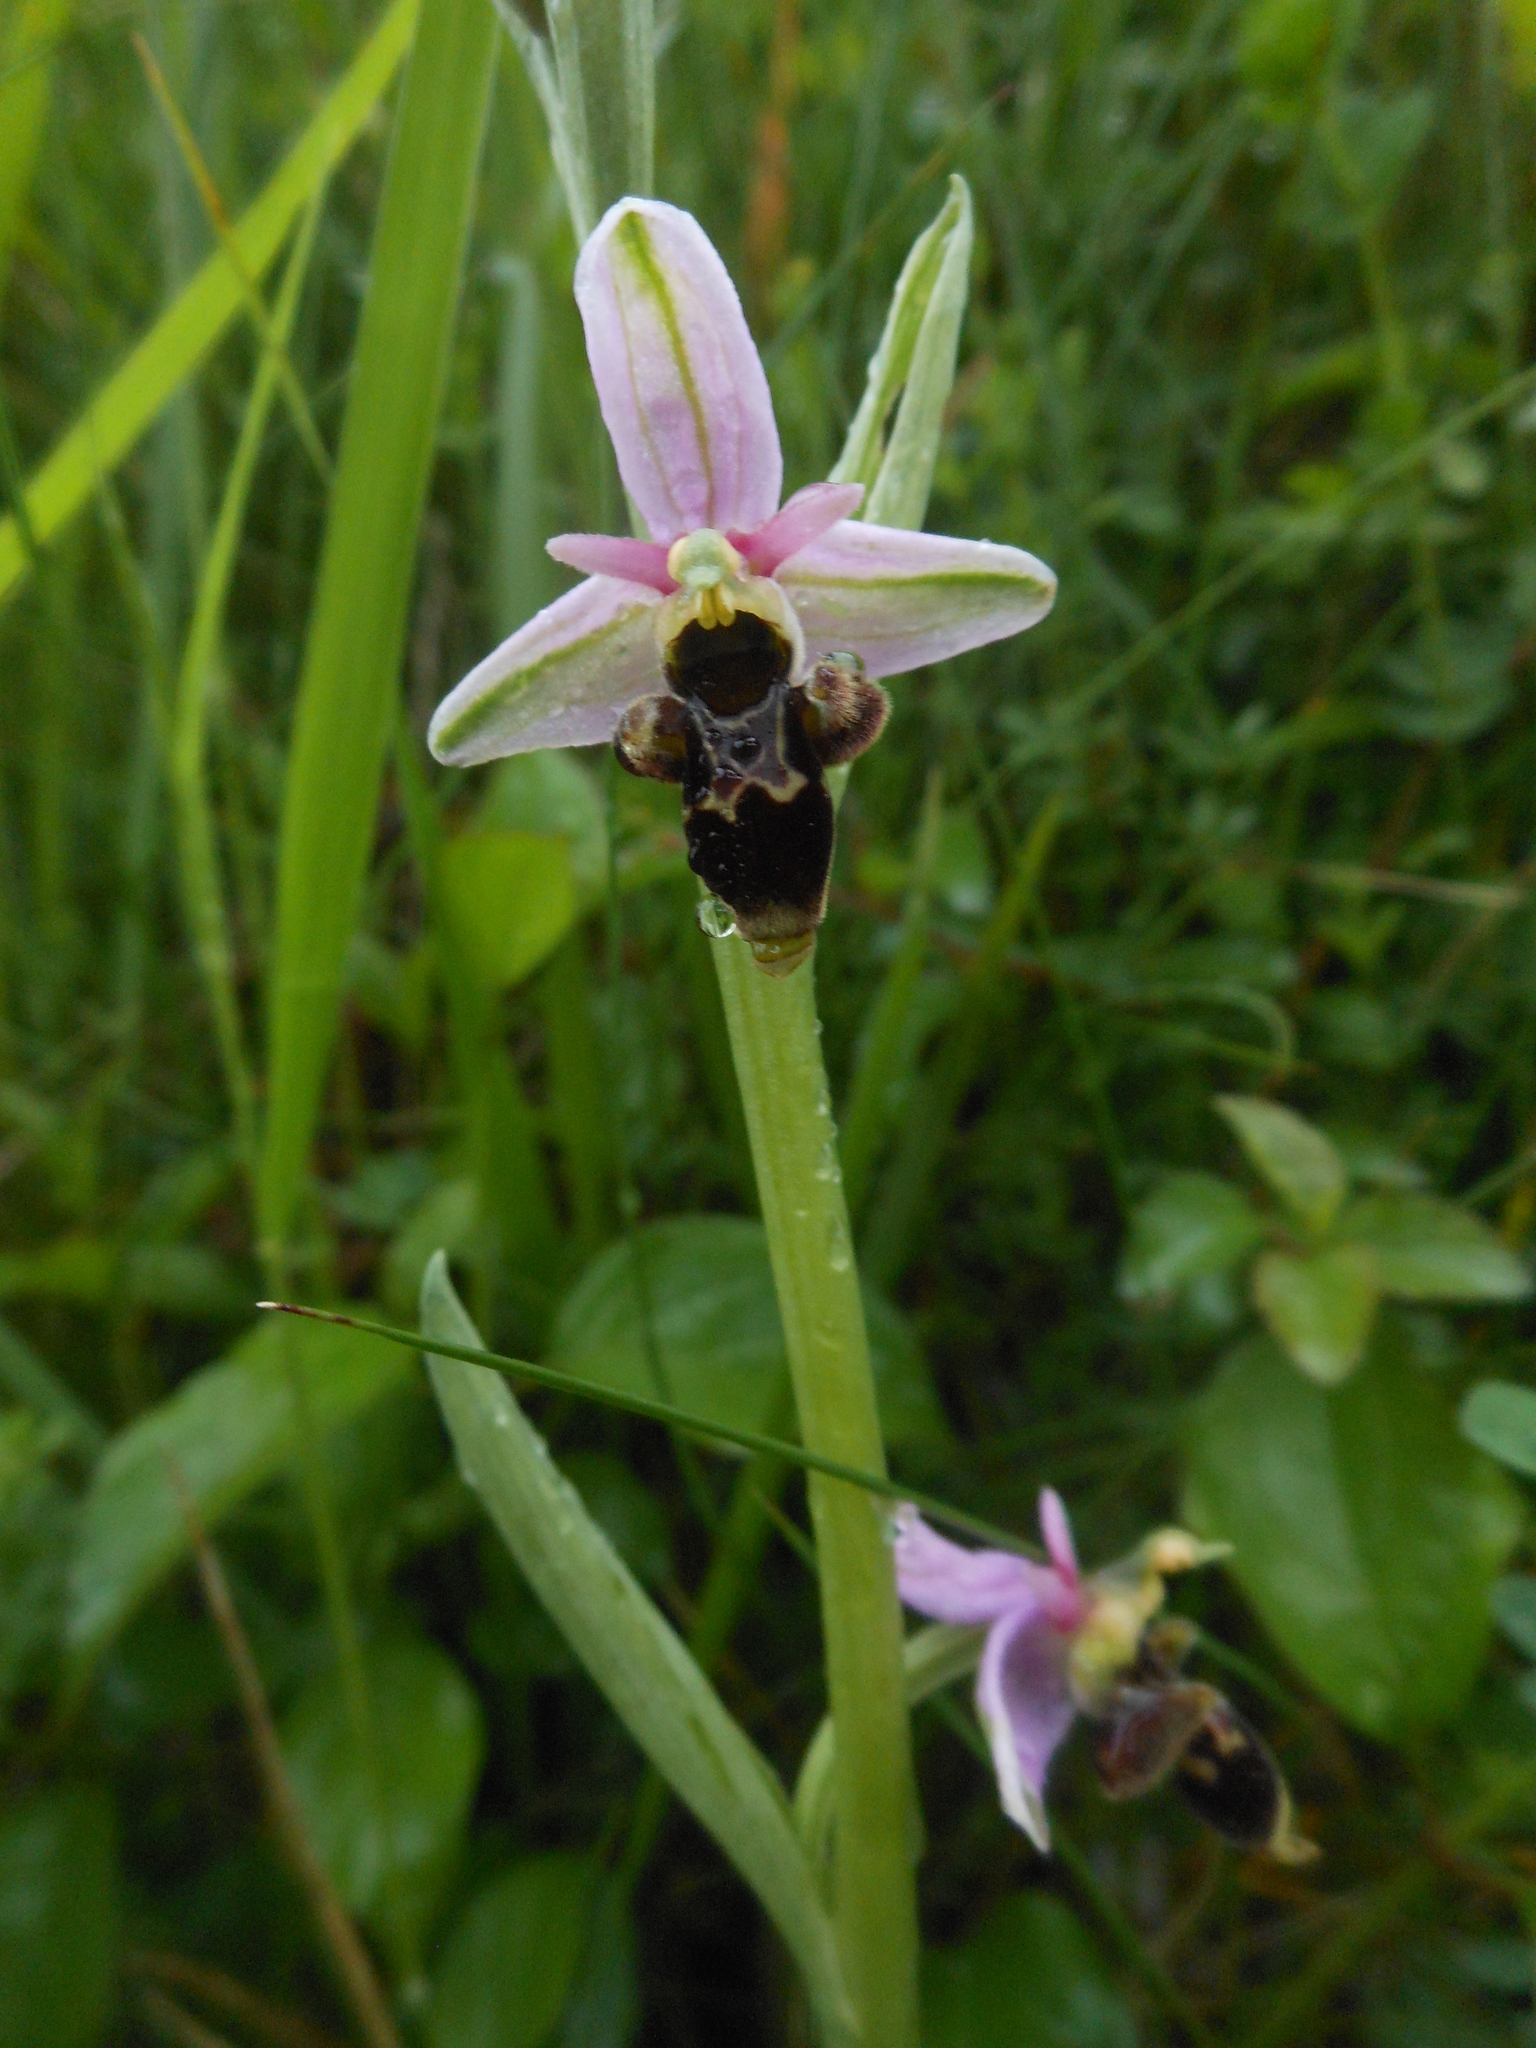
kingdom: Plantae
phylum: Tracheophyta
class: Liliopsida
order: Asparagales
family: Orchidaceae
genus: Ophrys
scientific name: Ophrys scolopax
